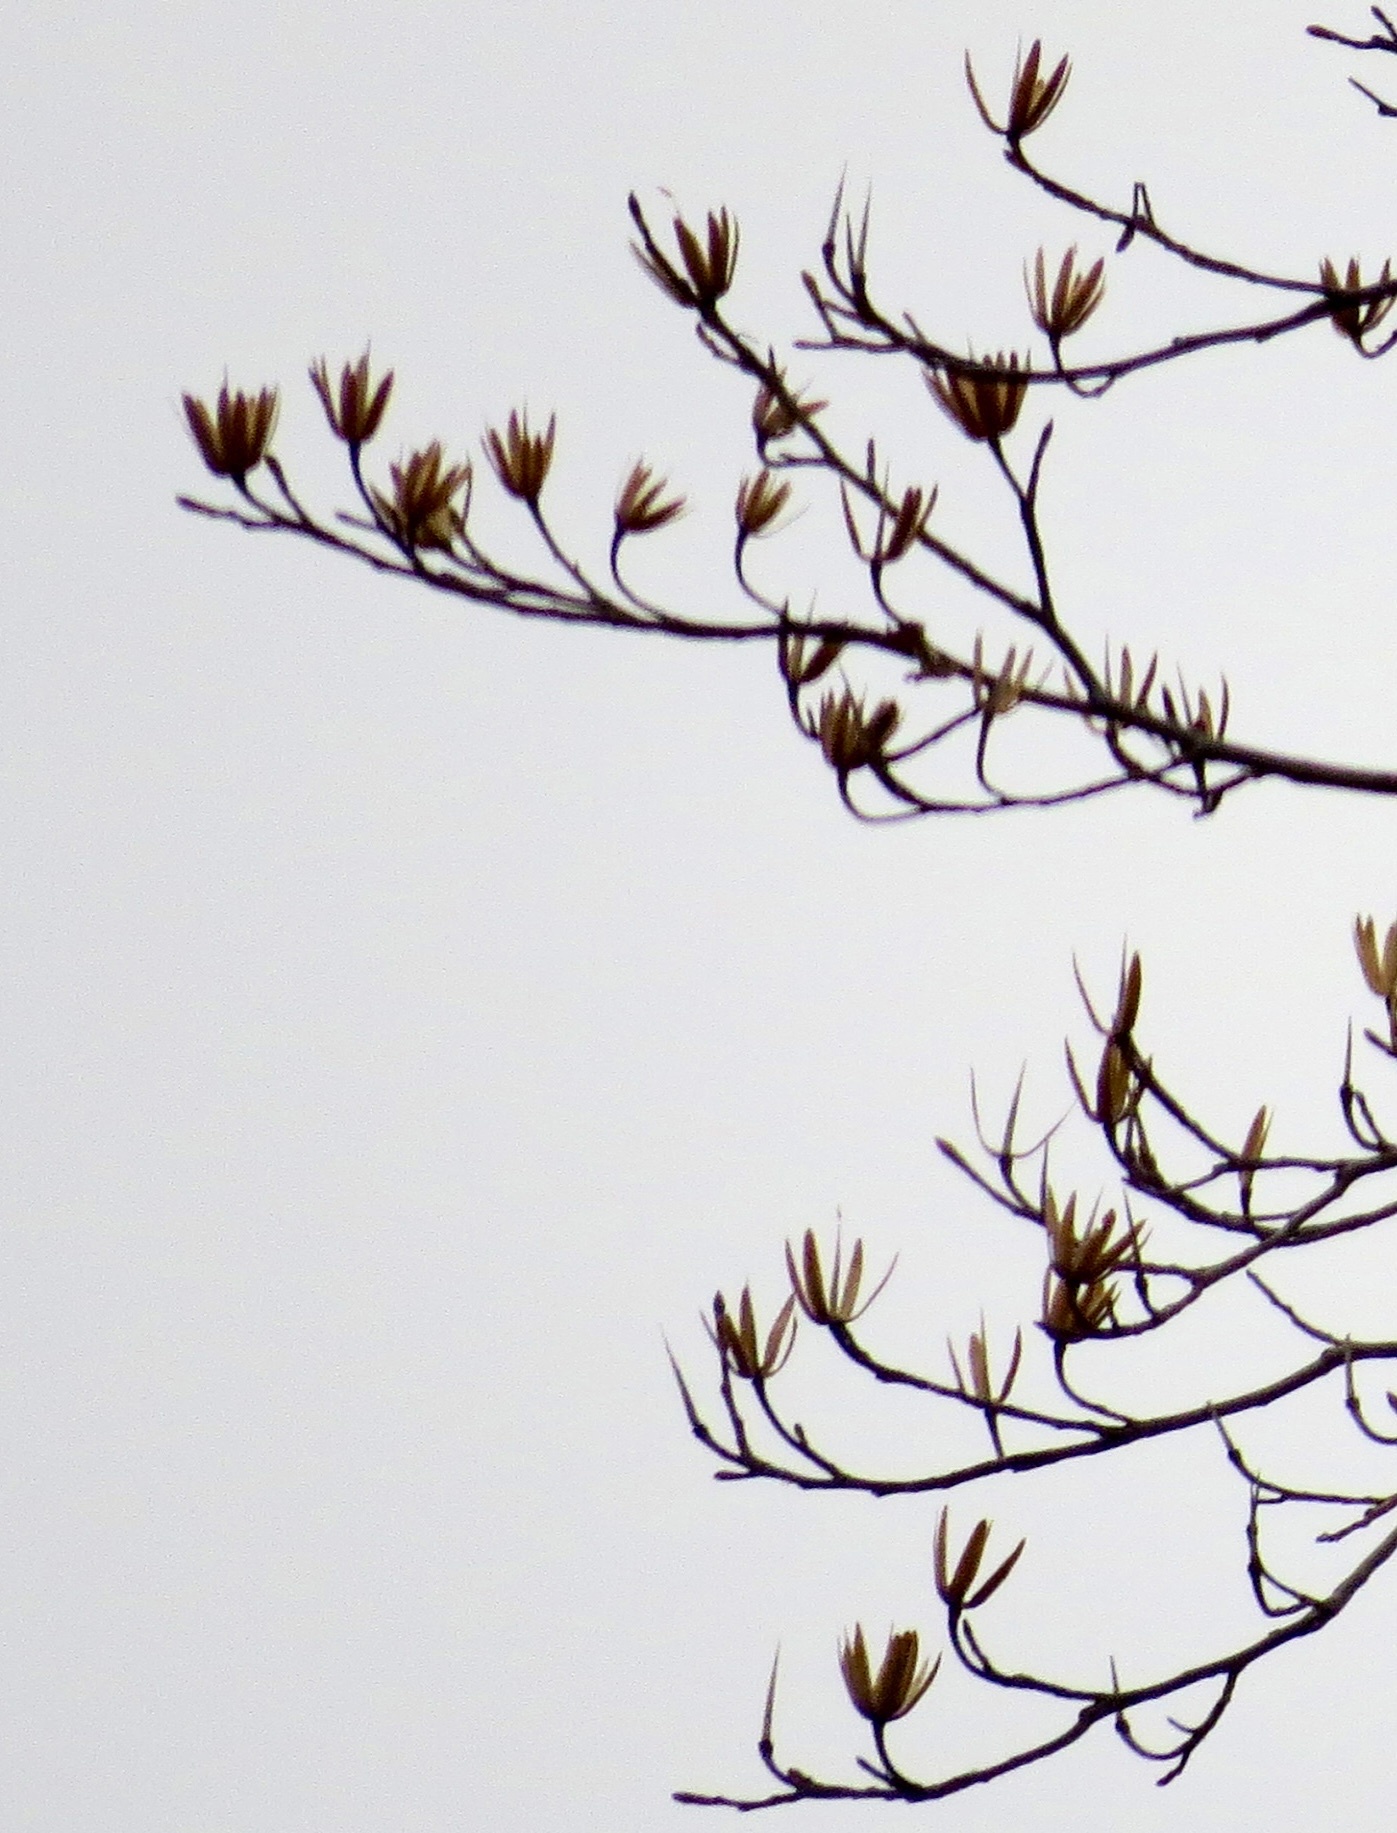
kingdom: Plantae
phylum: Tracheophyta
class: Magnoliopsida
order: Magnoliales
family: Magnoliaceae
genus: Liriodendron
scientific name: Liriodendron tulipifera
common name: Tulip tree
